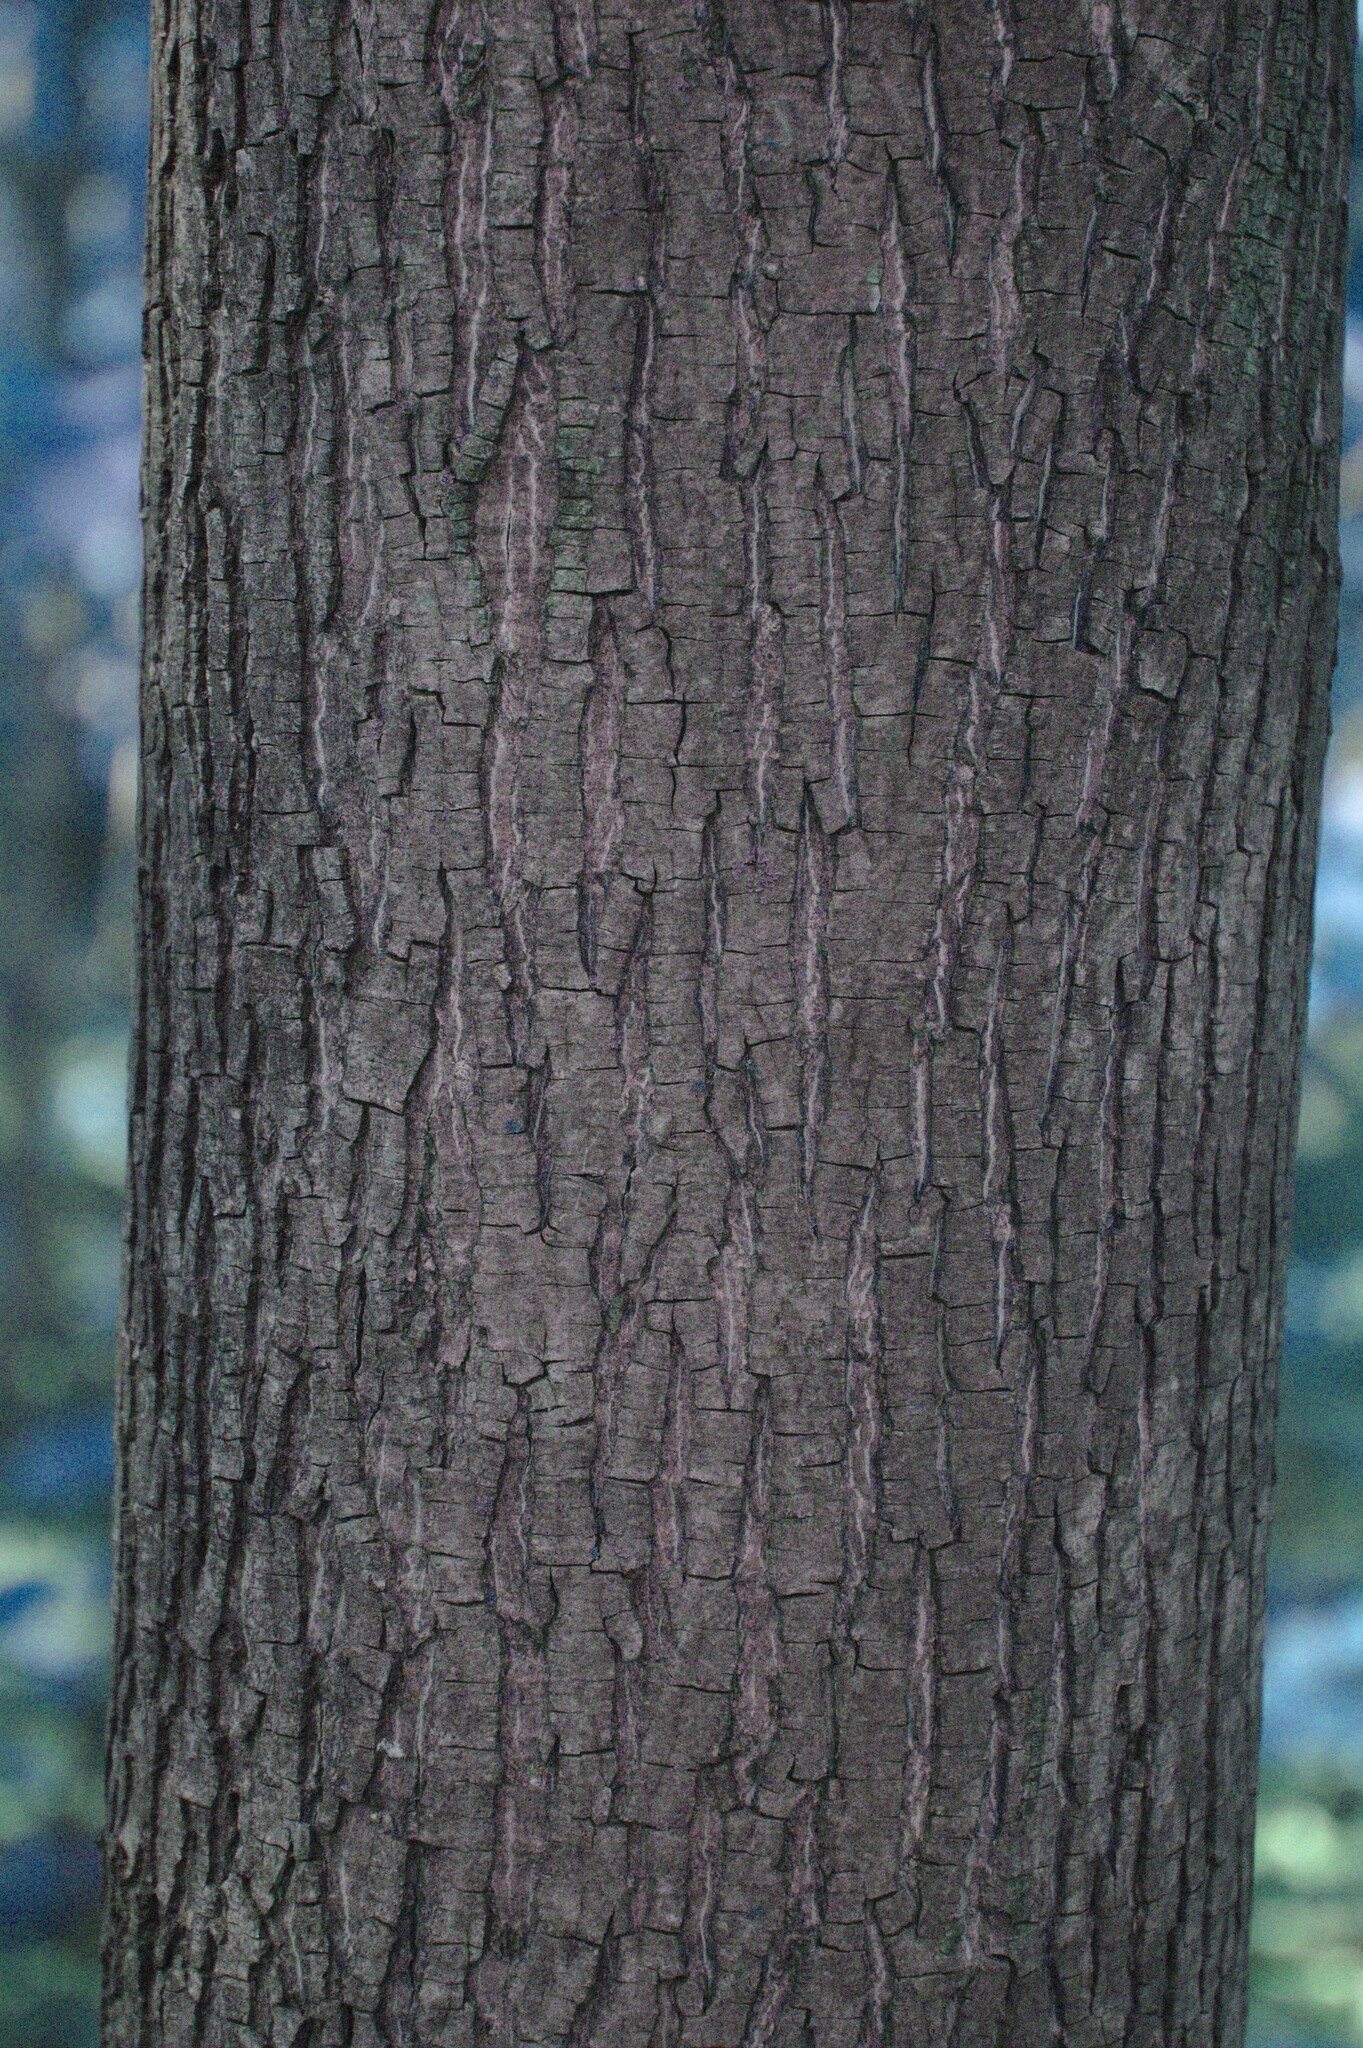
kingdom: Plantae
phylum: Tracheophyta
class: Magnoliopsida
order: Fagales
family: Juglandaceae
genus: Carya
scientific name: Carya cordiformis
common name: Bitternut hickory
